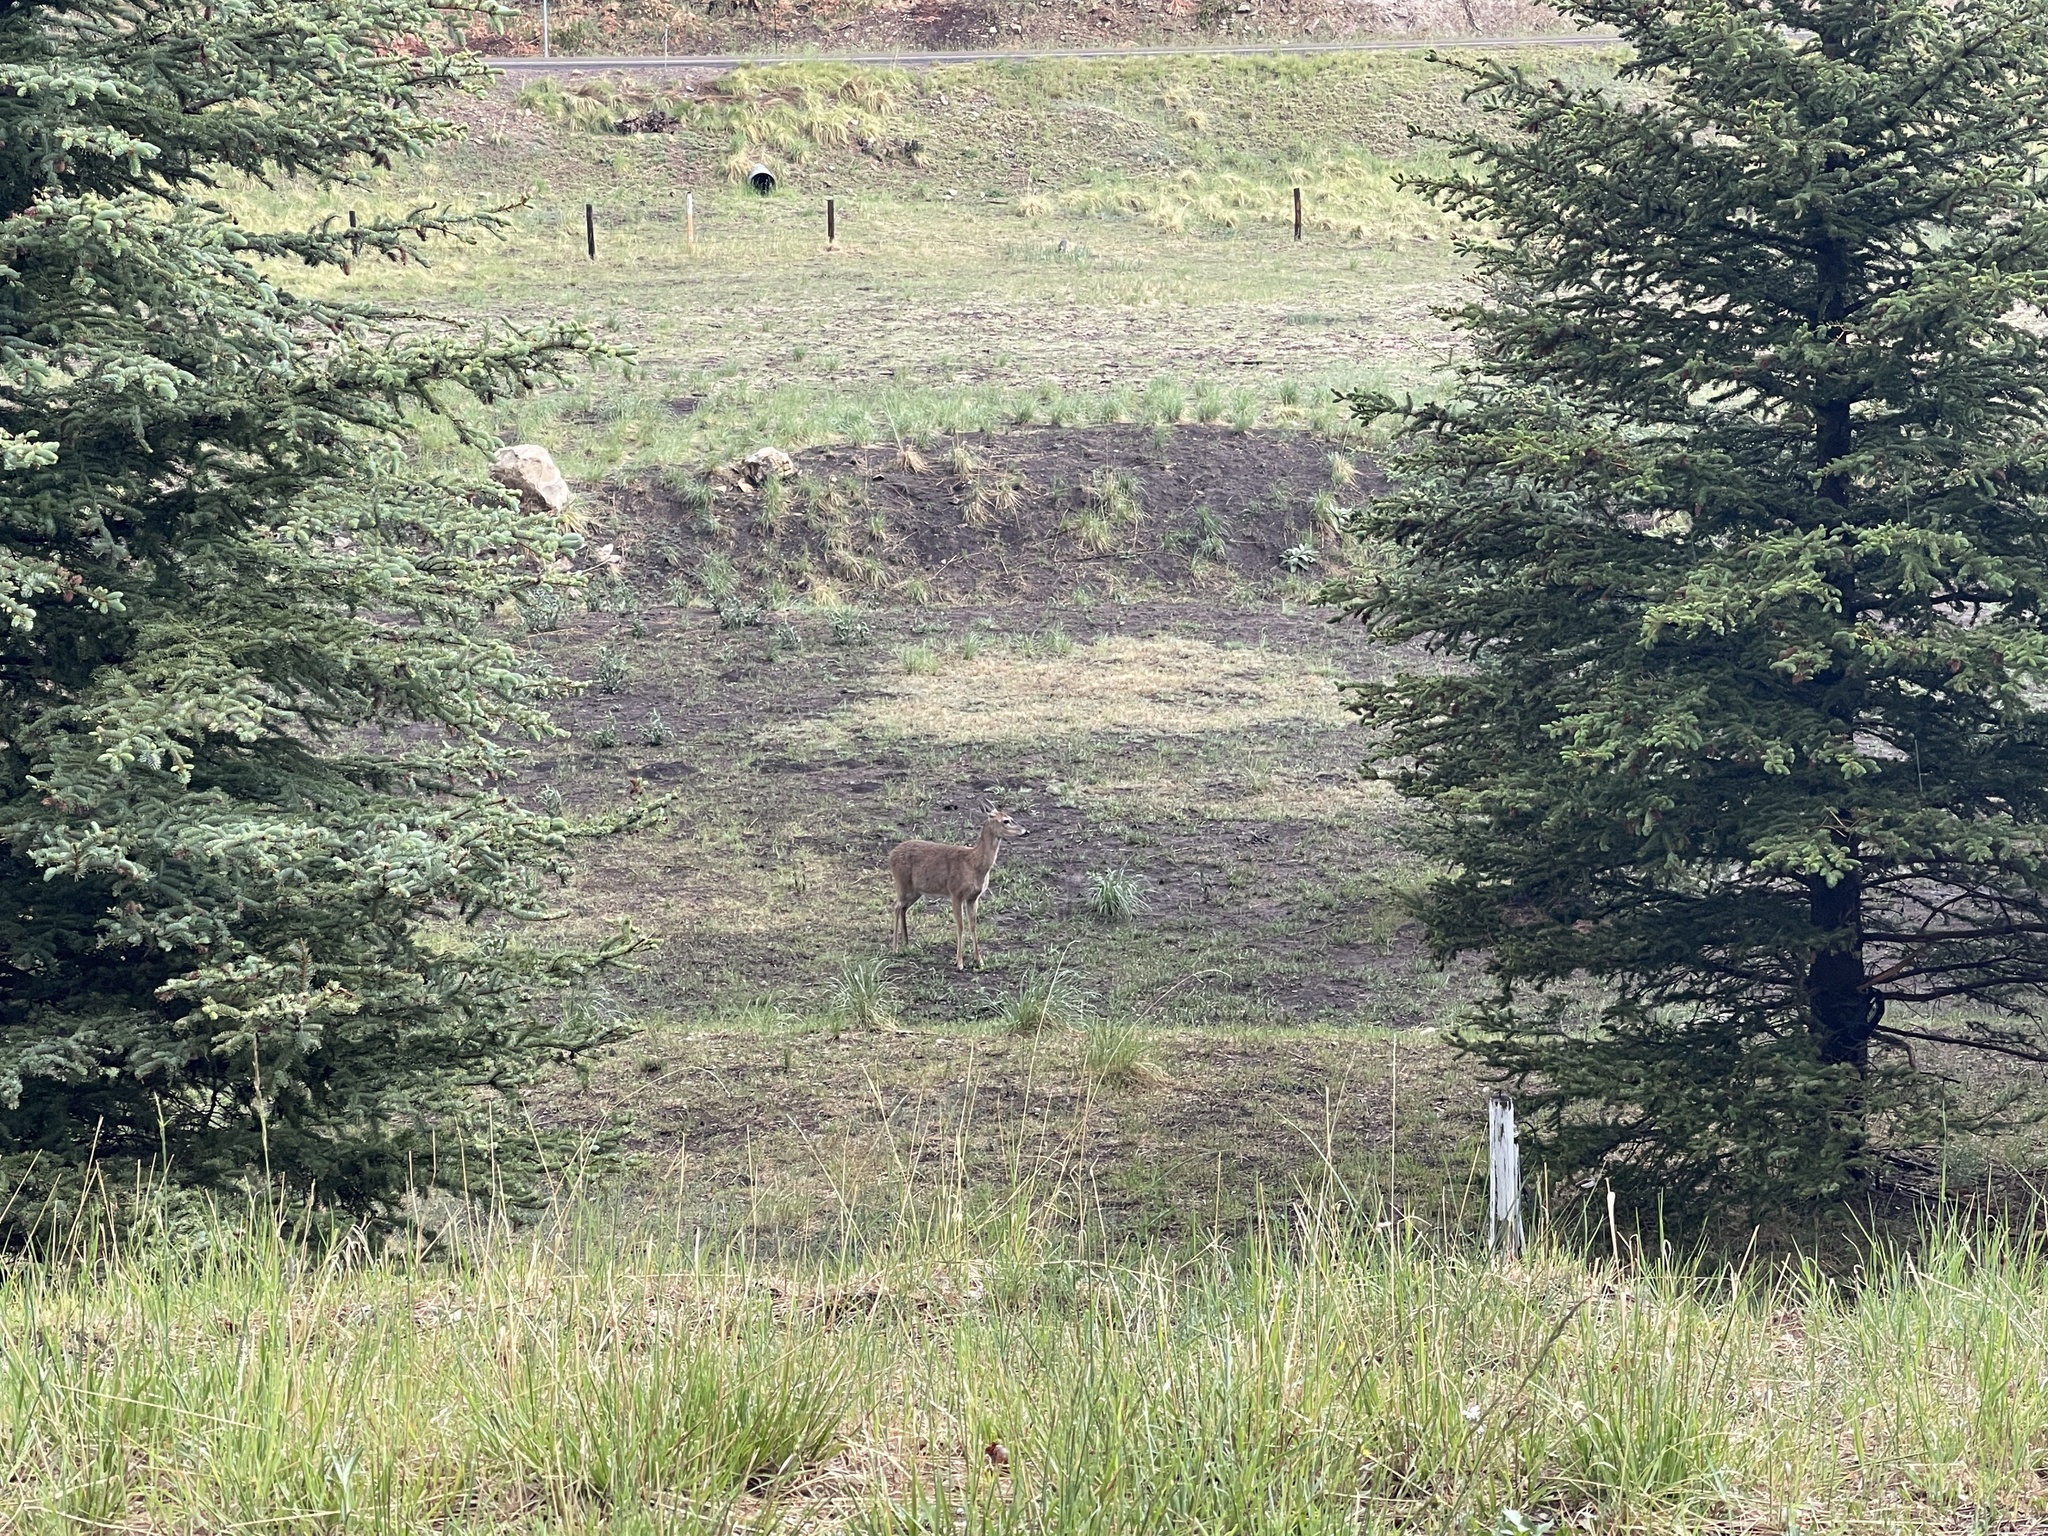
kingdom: Animalia
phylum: Chordata
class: Mammalia
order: Artiodactyla
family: Cervidae
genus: Odocoileus
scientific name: Odocoileus virginianus
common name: White-tailed deer
